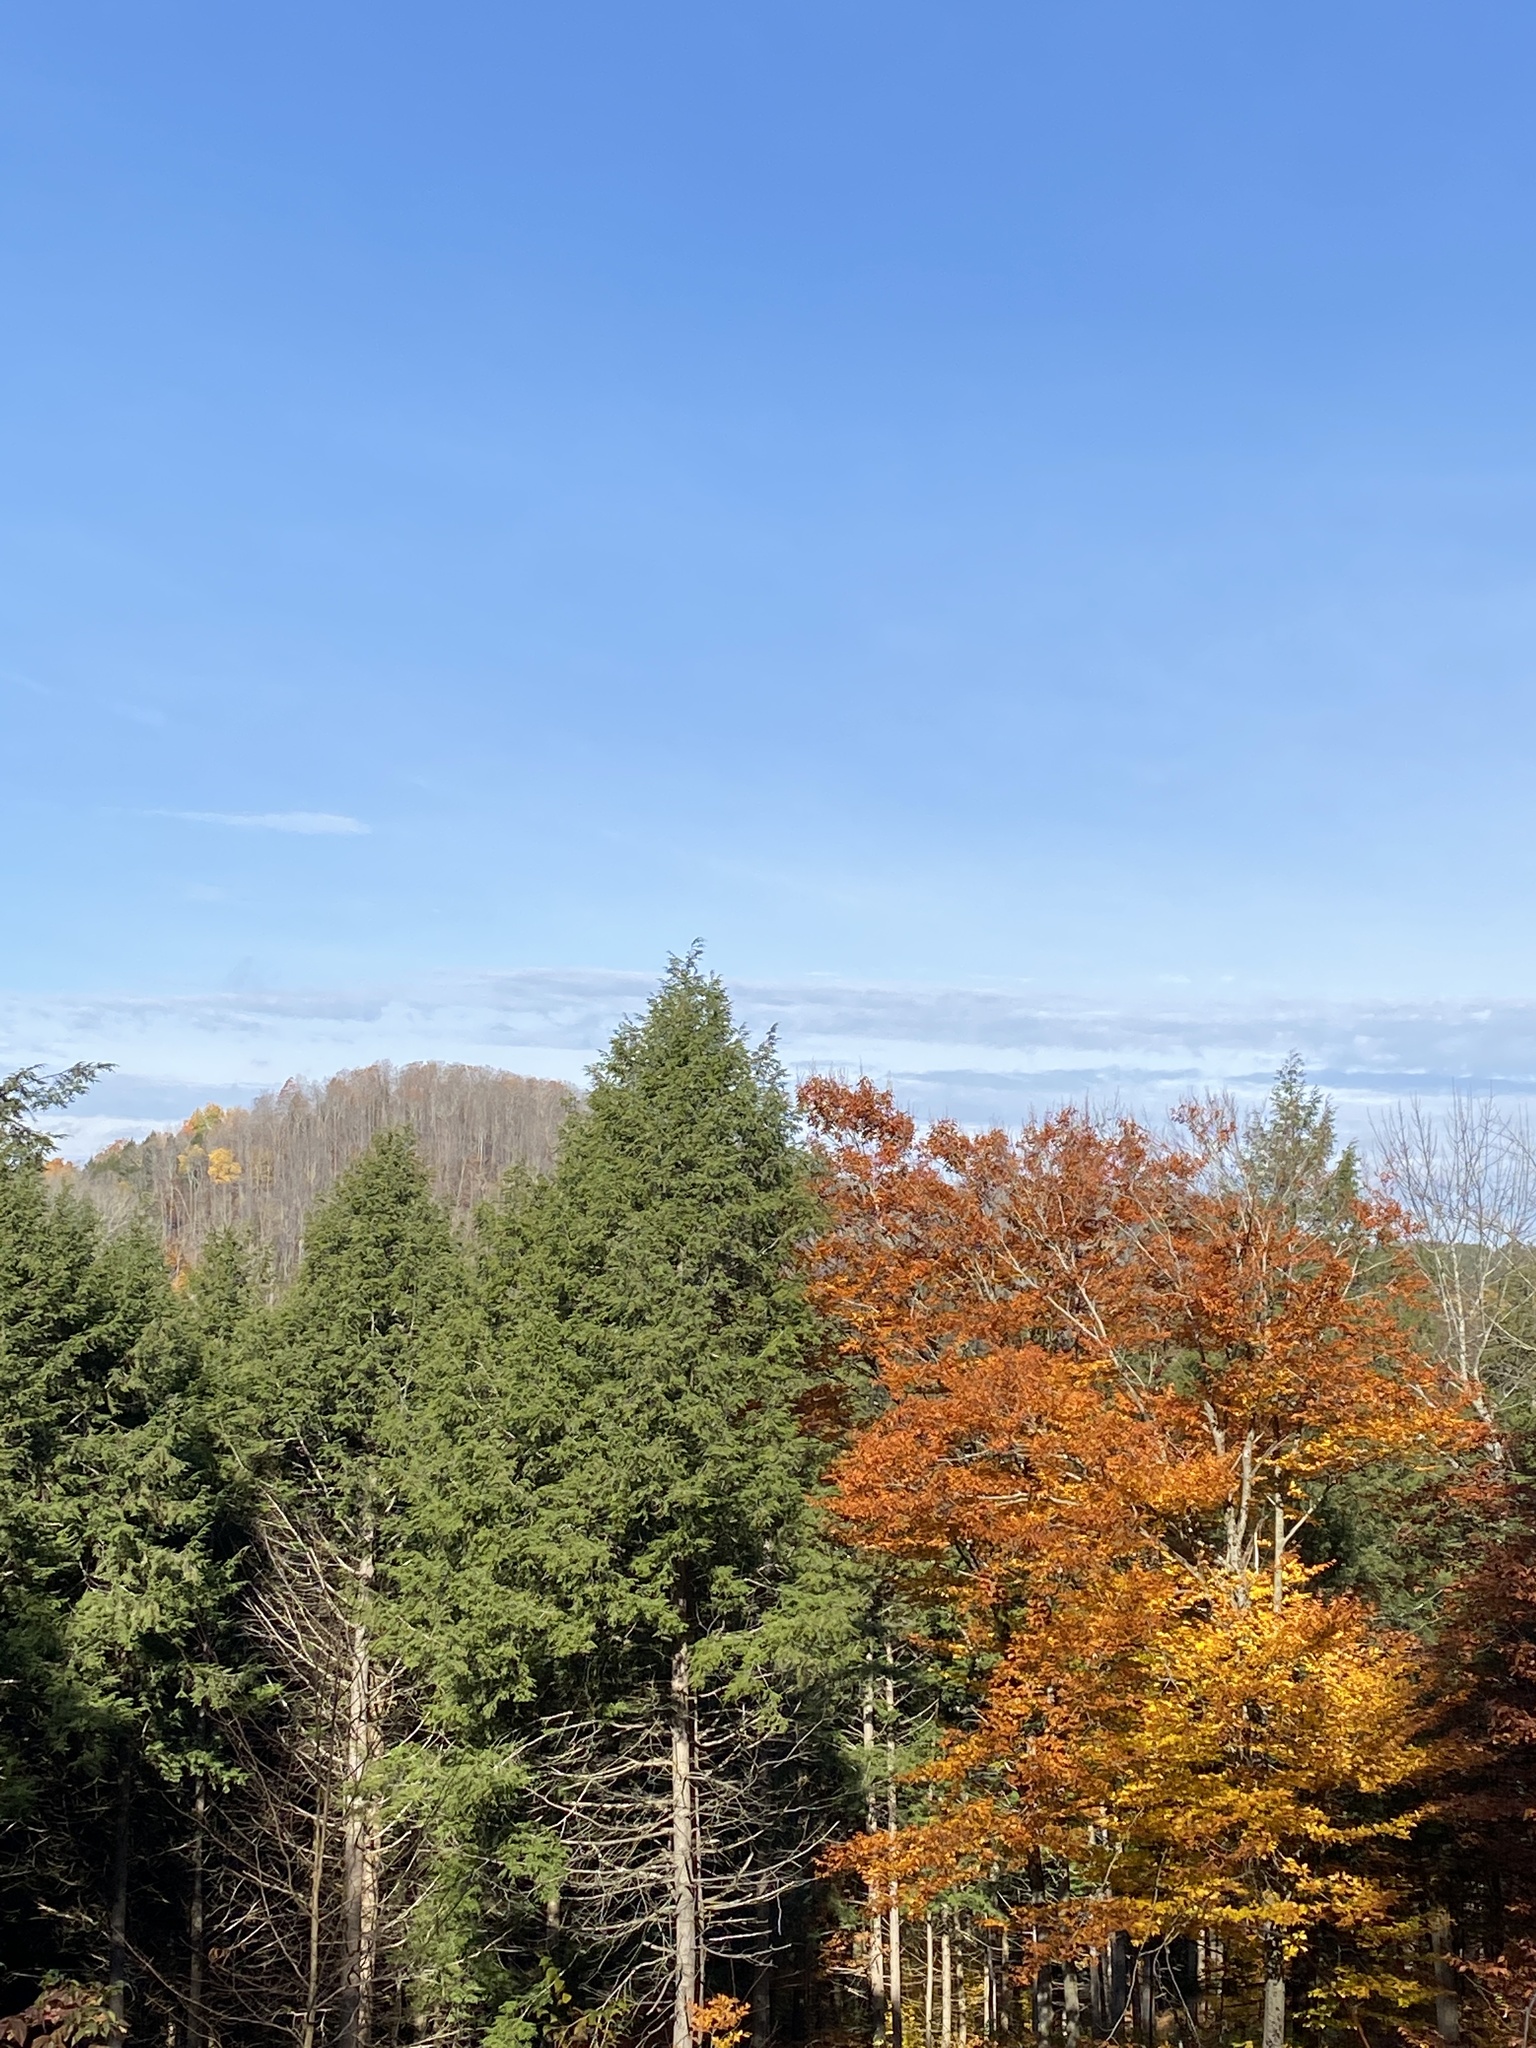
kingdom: Plantae
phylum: Tracheophyta
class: Pinopsida
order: Pinales
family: Pinaceae
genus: Tsuga
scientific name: Tsuga canadensis
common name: Eastern hemlock
